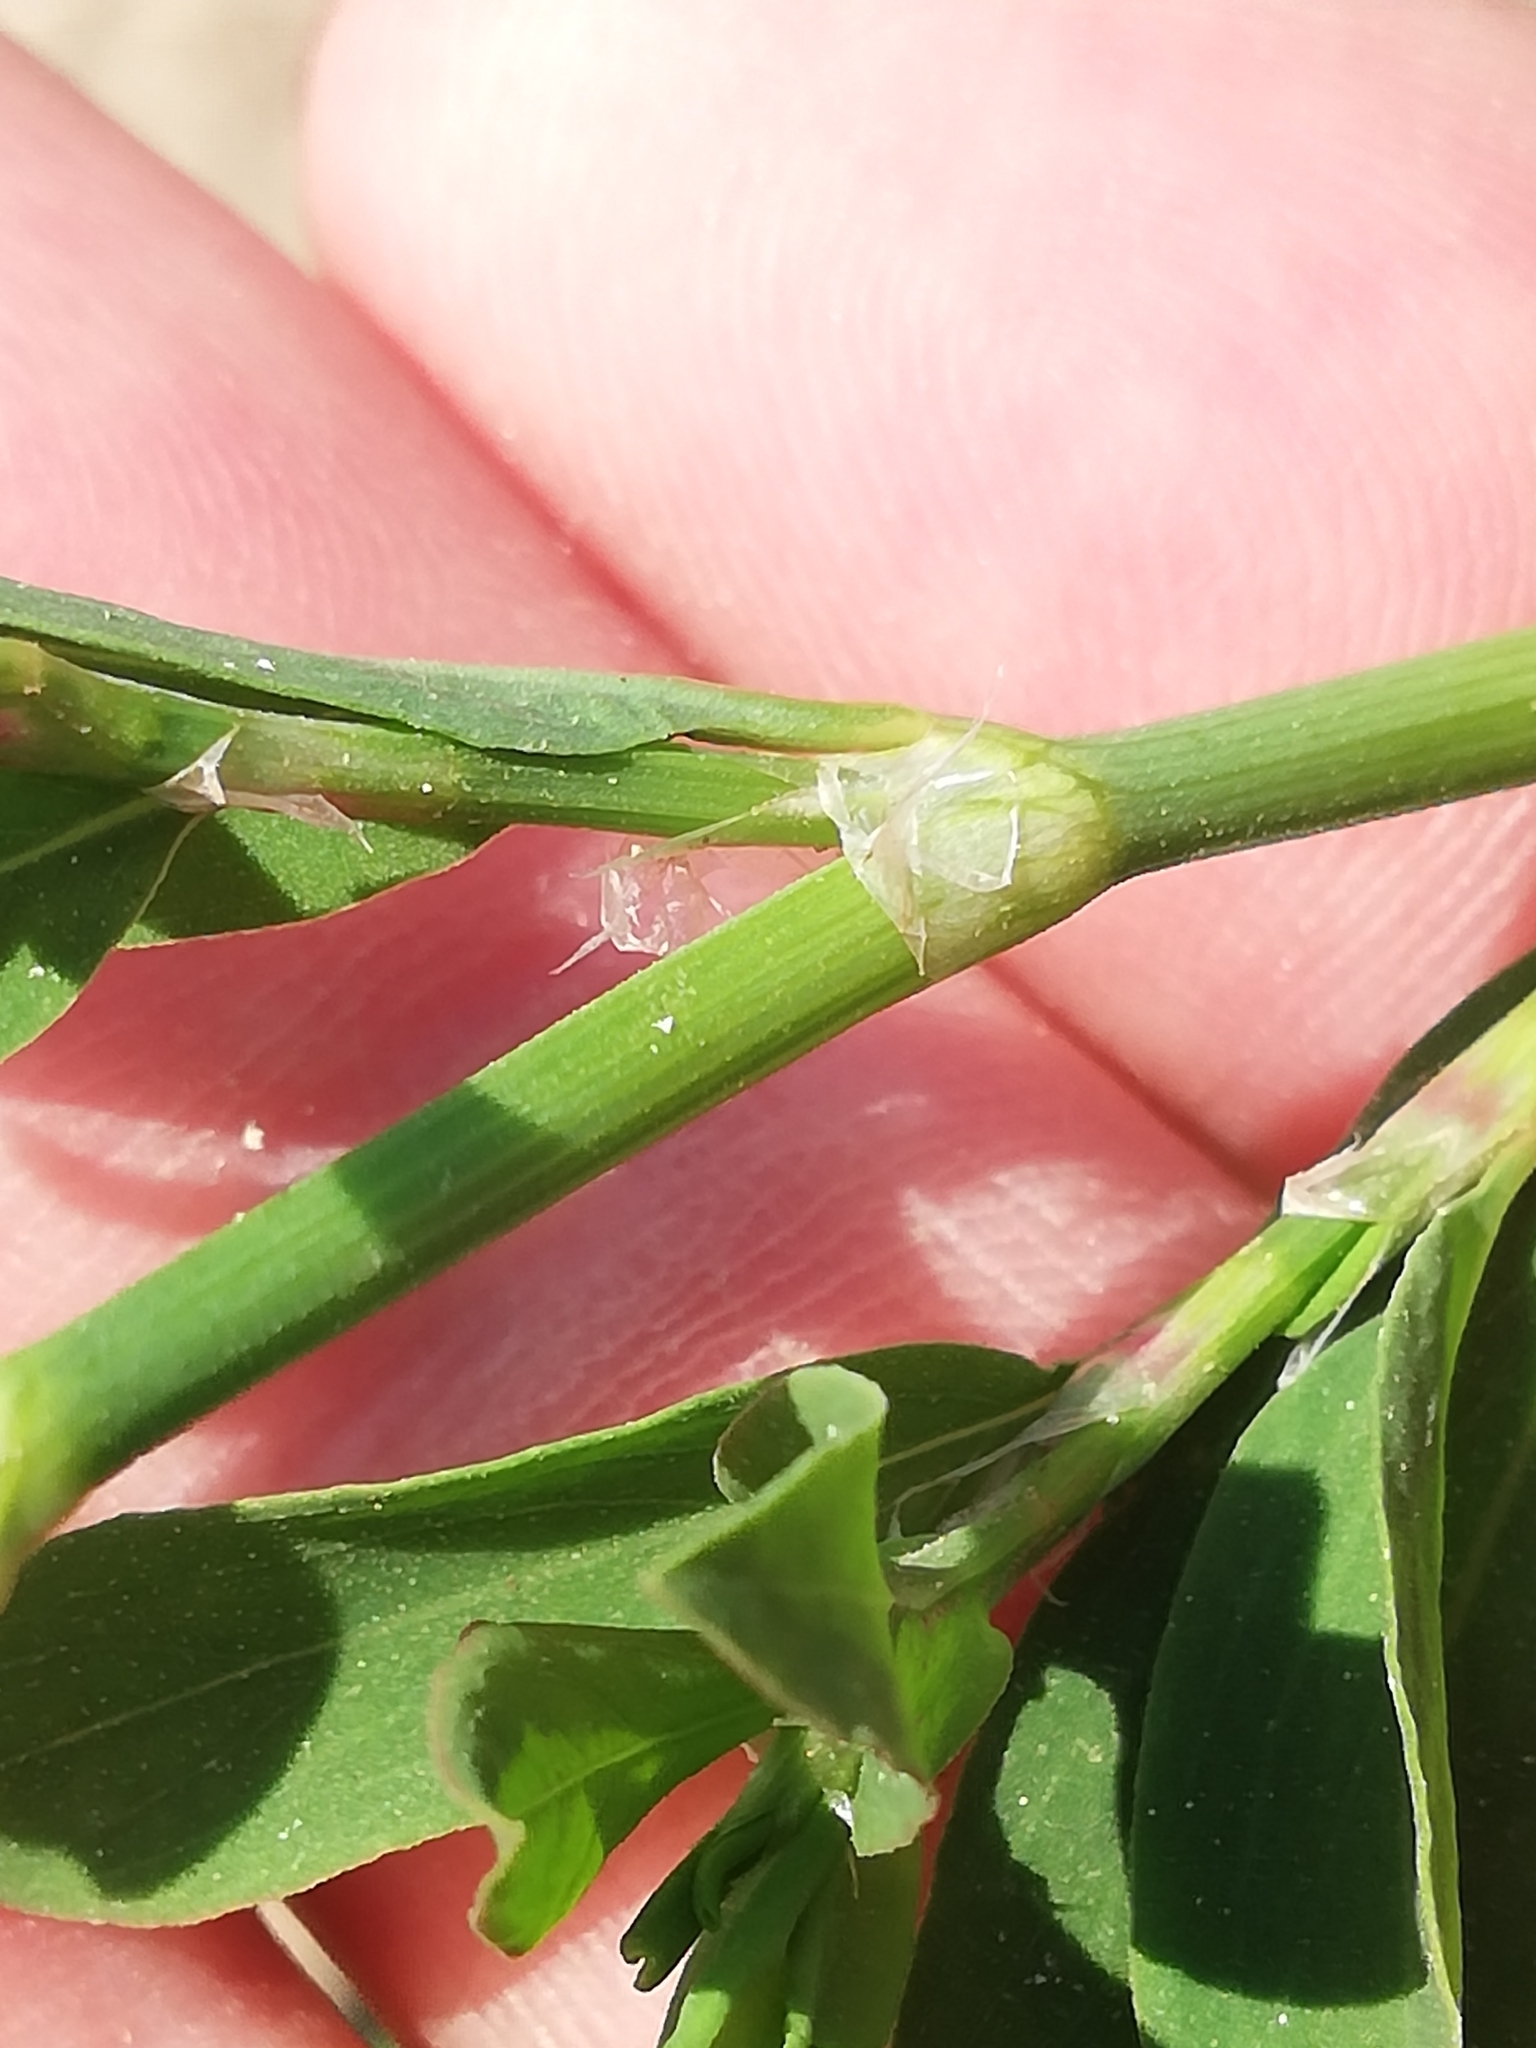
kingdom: Plantae
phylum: Tracheophyta
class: Magnoliopsida
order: Caryophyllales
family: Polygonaceae
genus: Polygonum
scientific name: Polygonum
